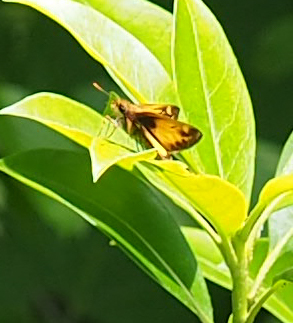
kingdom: Animalia
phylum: Arthropoda
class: Insecta
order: Lepidoptera
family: Hesperiidae
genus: Lon
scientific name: Lon zabulon
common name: Zabulon skipper
